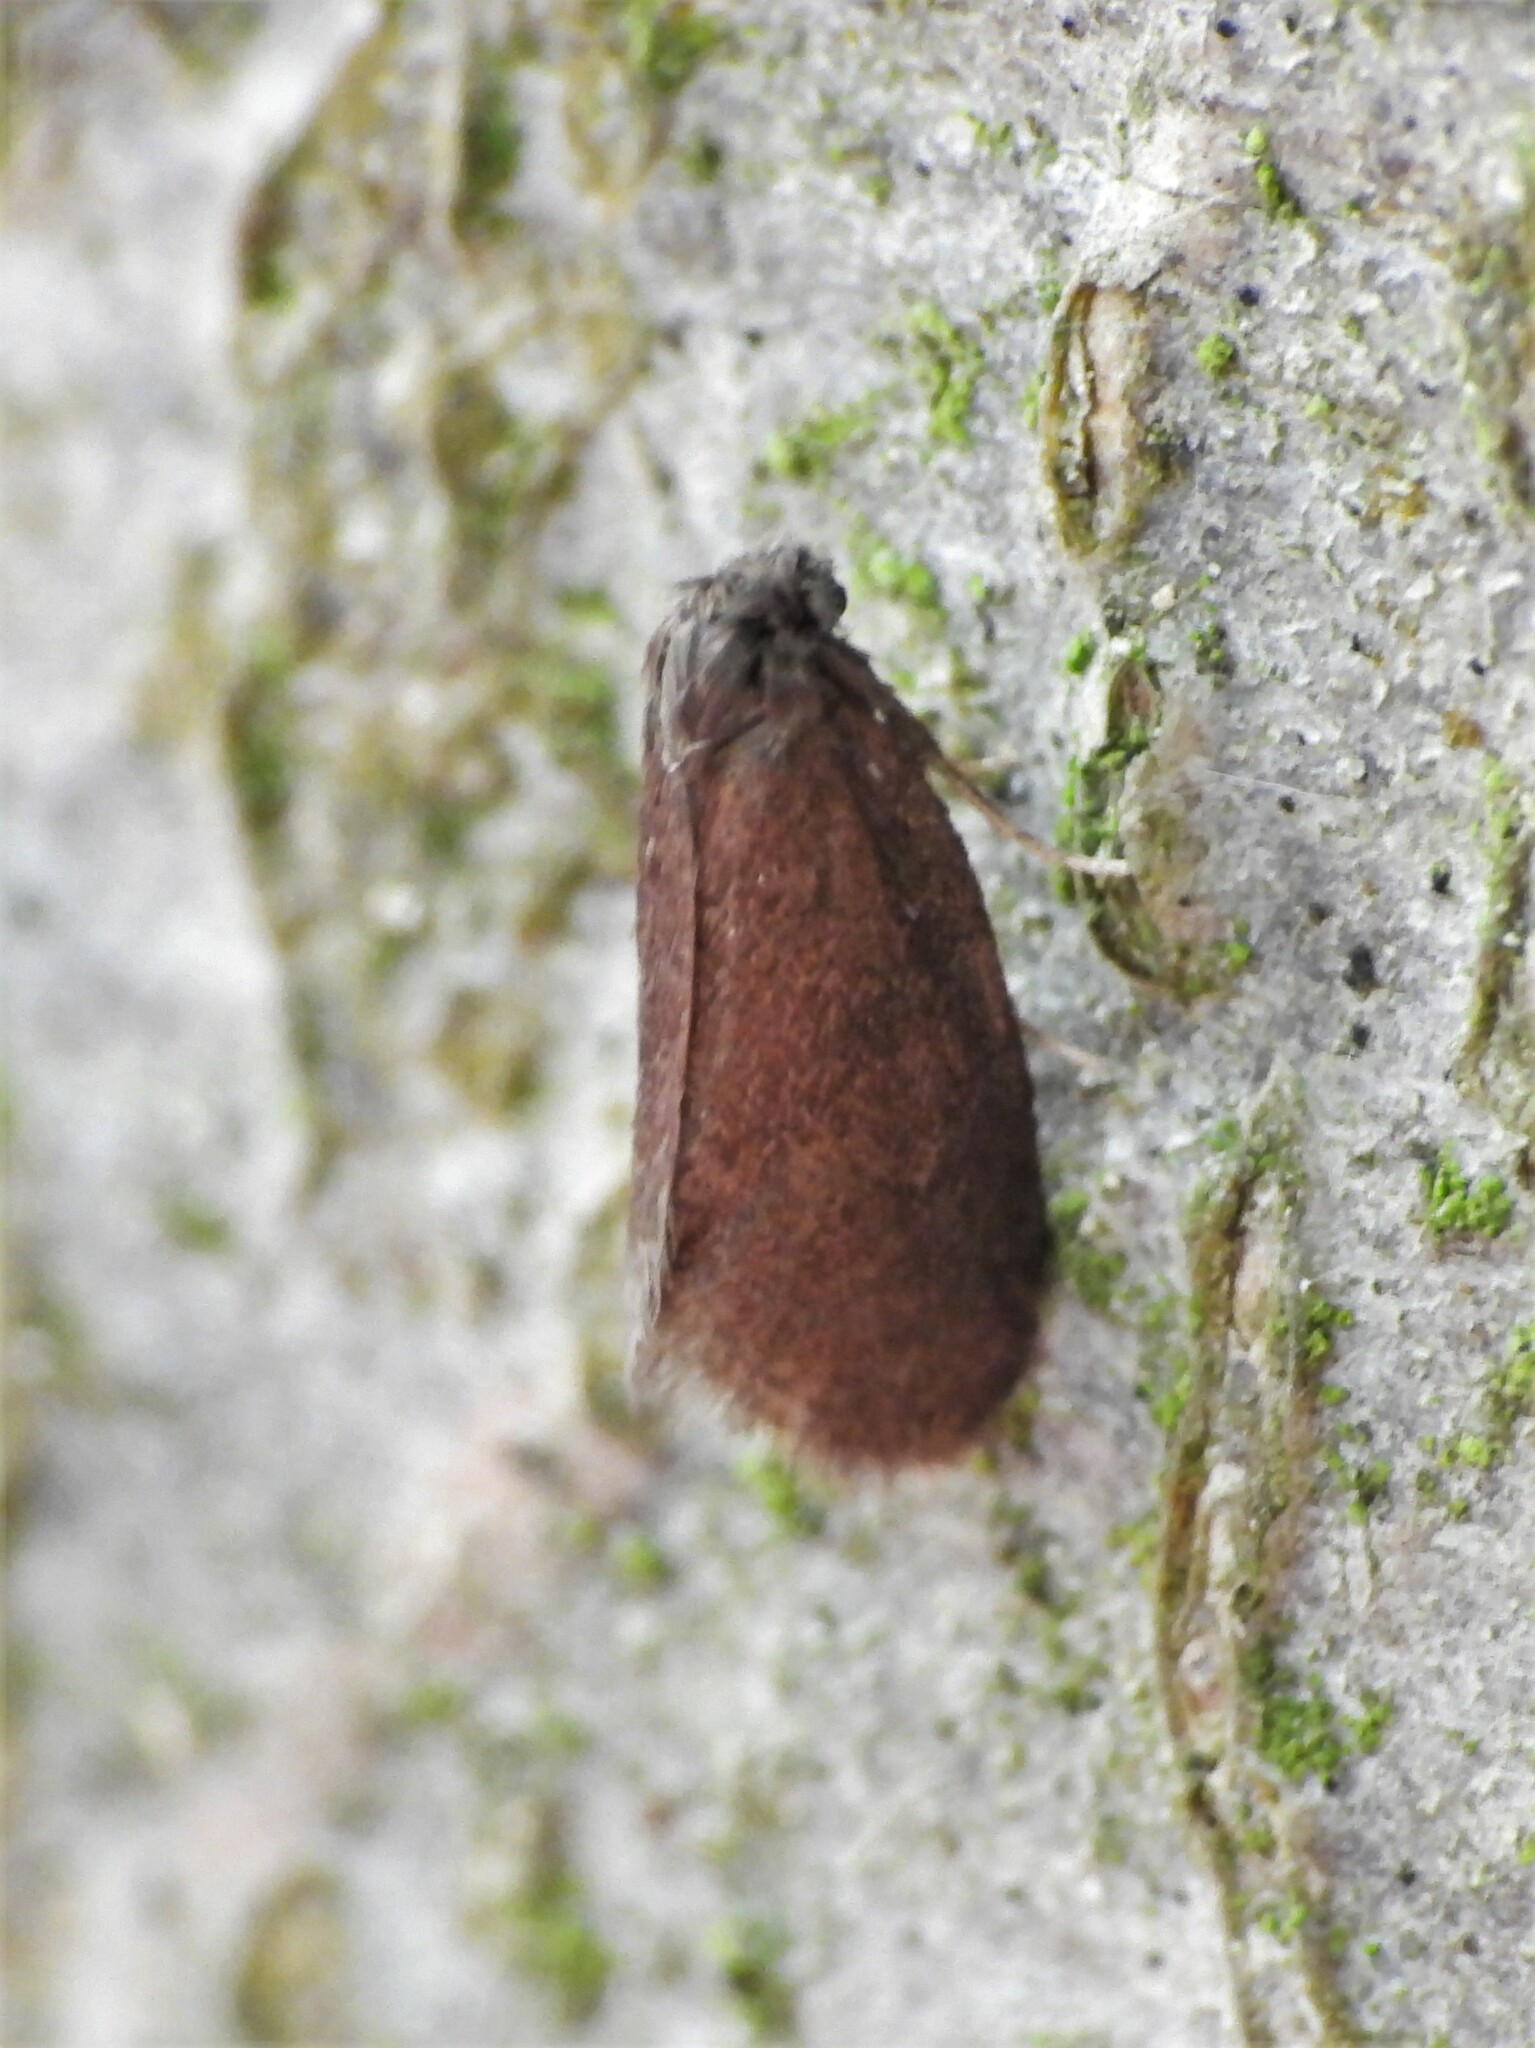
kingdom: Animalia
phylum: Arthropoda
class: Insecta
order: Lepidoptera
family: Psychidae
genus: Psyche
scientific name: Psyche casta
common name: Common sweep
